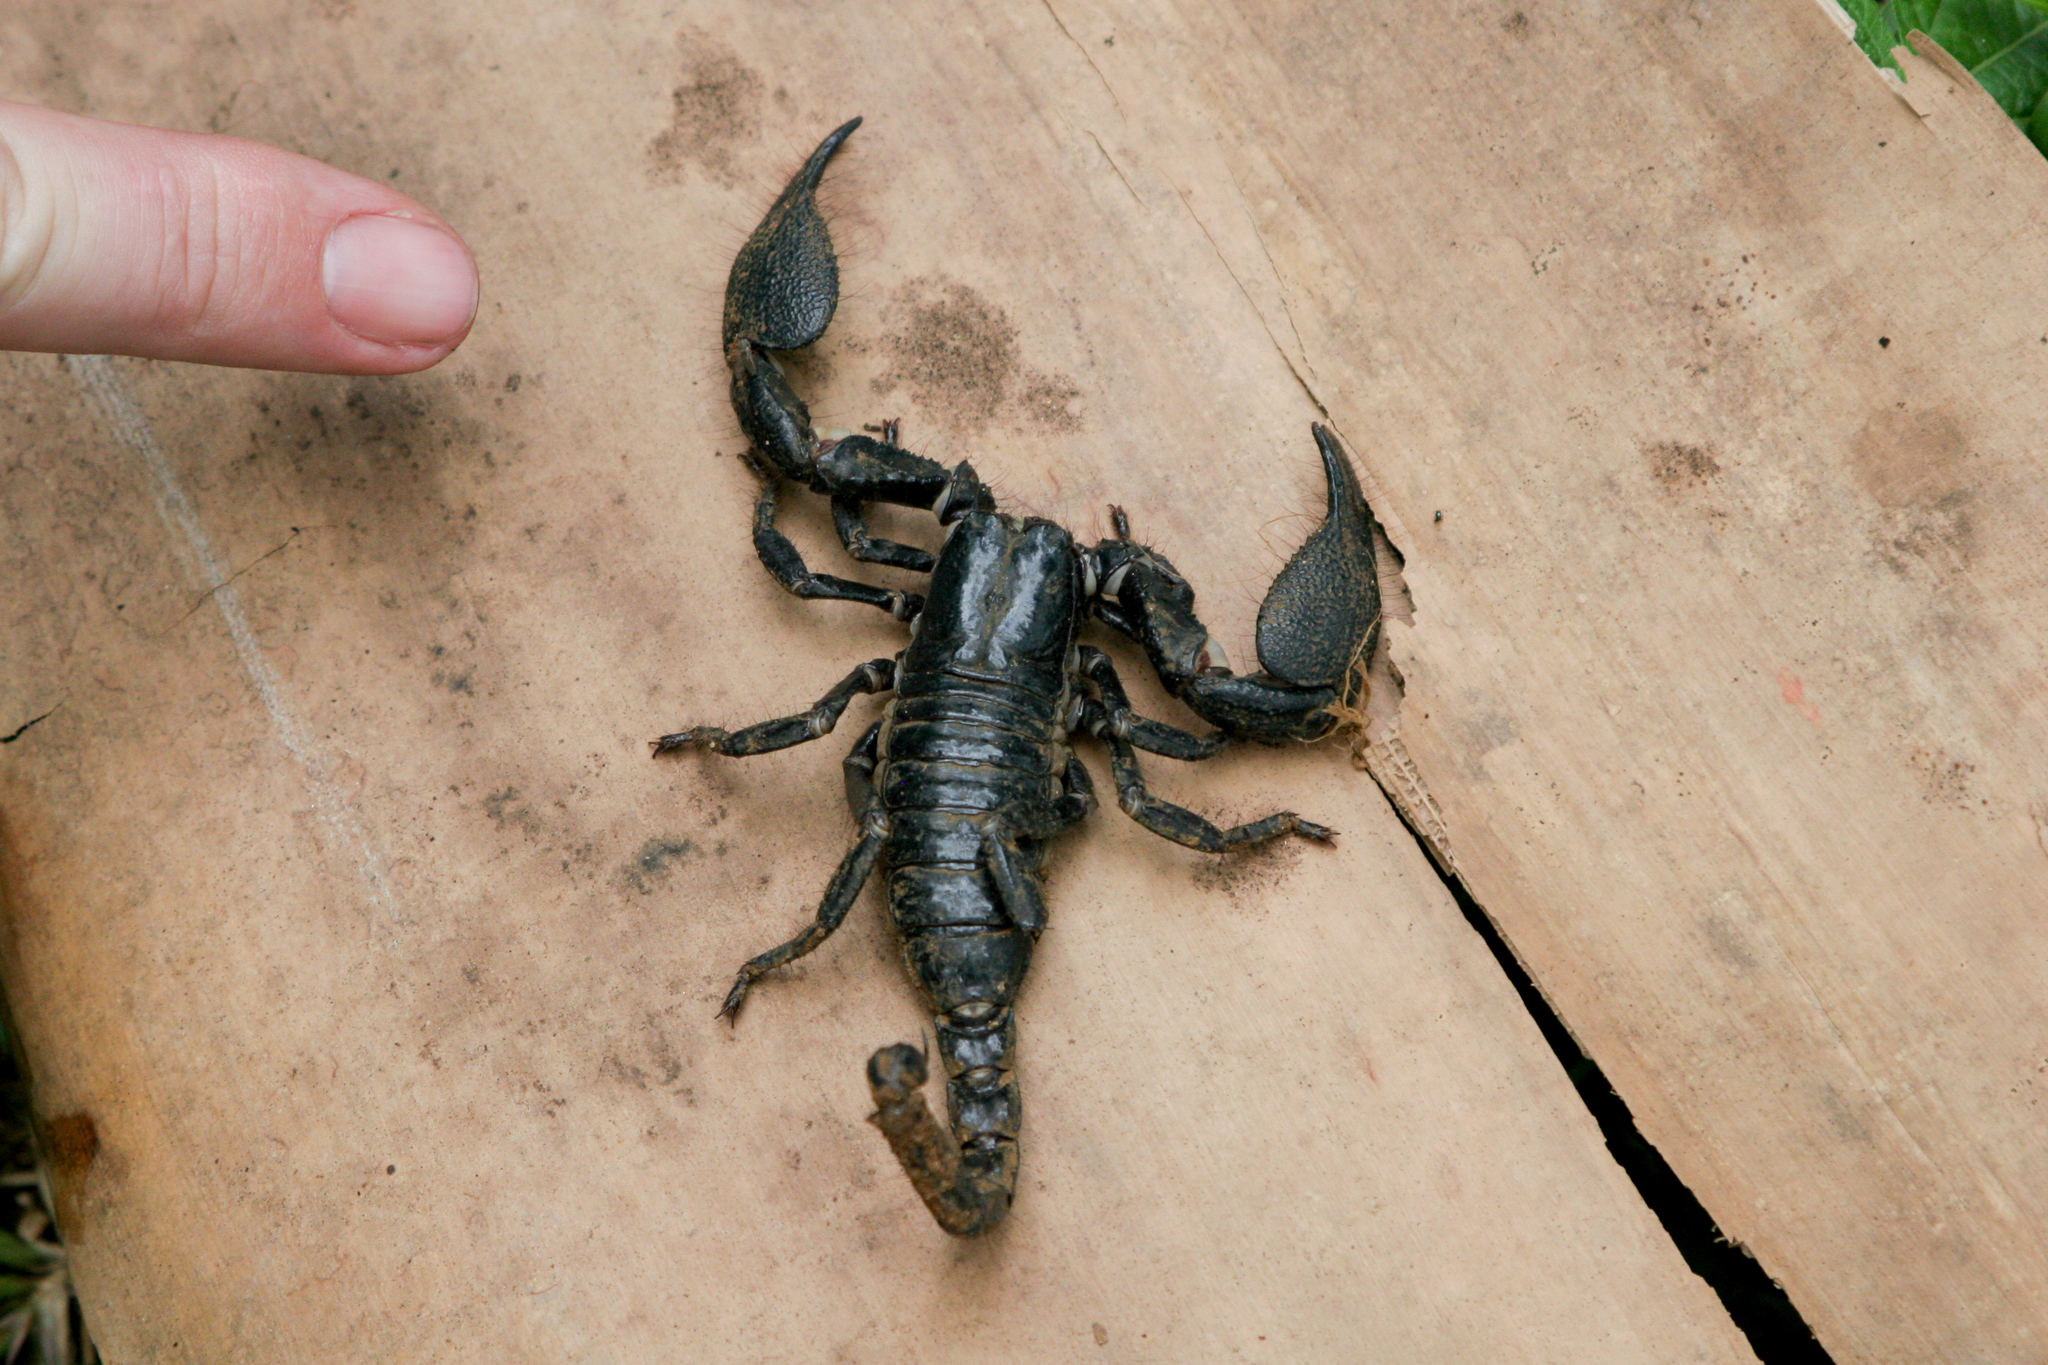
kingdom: Animalia
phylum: Arthropoda
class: Arachnida
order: Scorpiones
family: Scorpionidae
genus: Srilankametrus
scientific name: Srilankametrus indus
